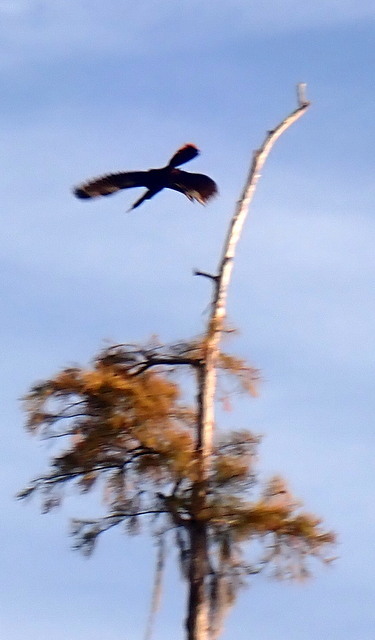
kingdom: Animalia
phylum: Chordata
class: Aves
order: Suliformes
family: Anhingidae
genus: Anhinga
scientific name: Anhinga anhinga
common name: Anhinga
